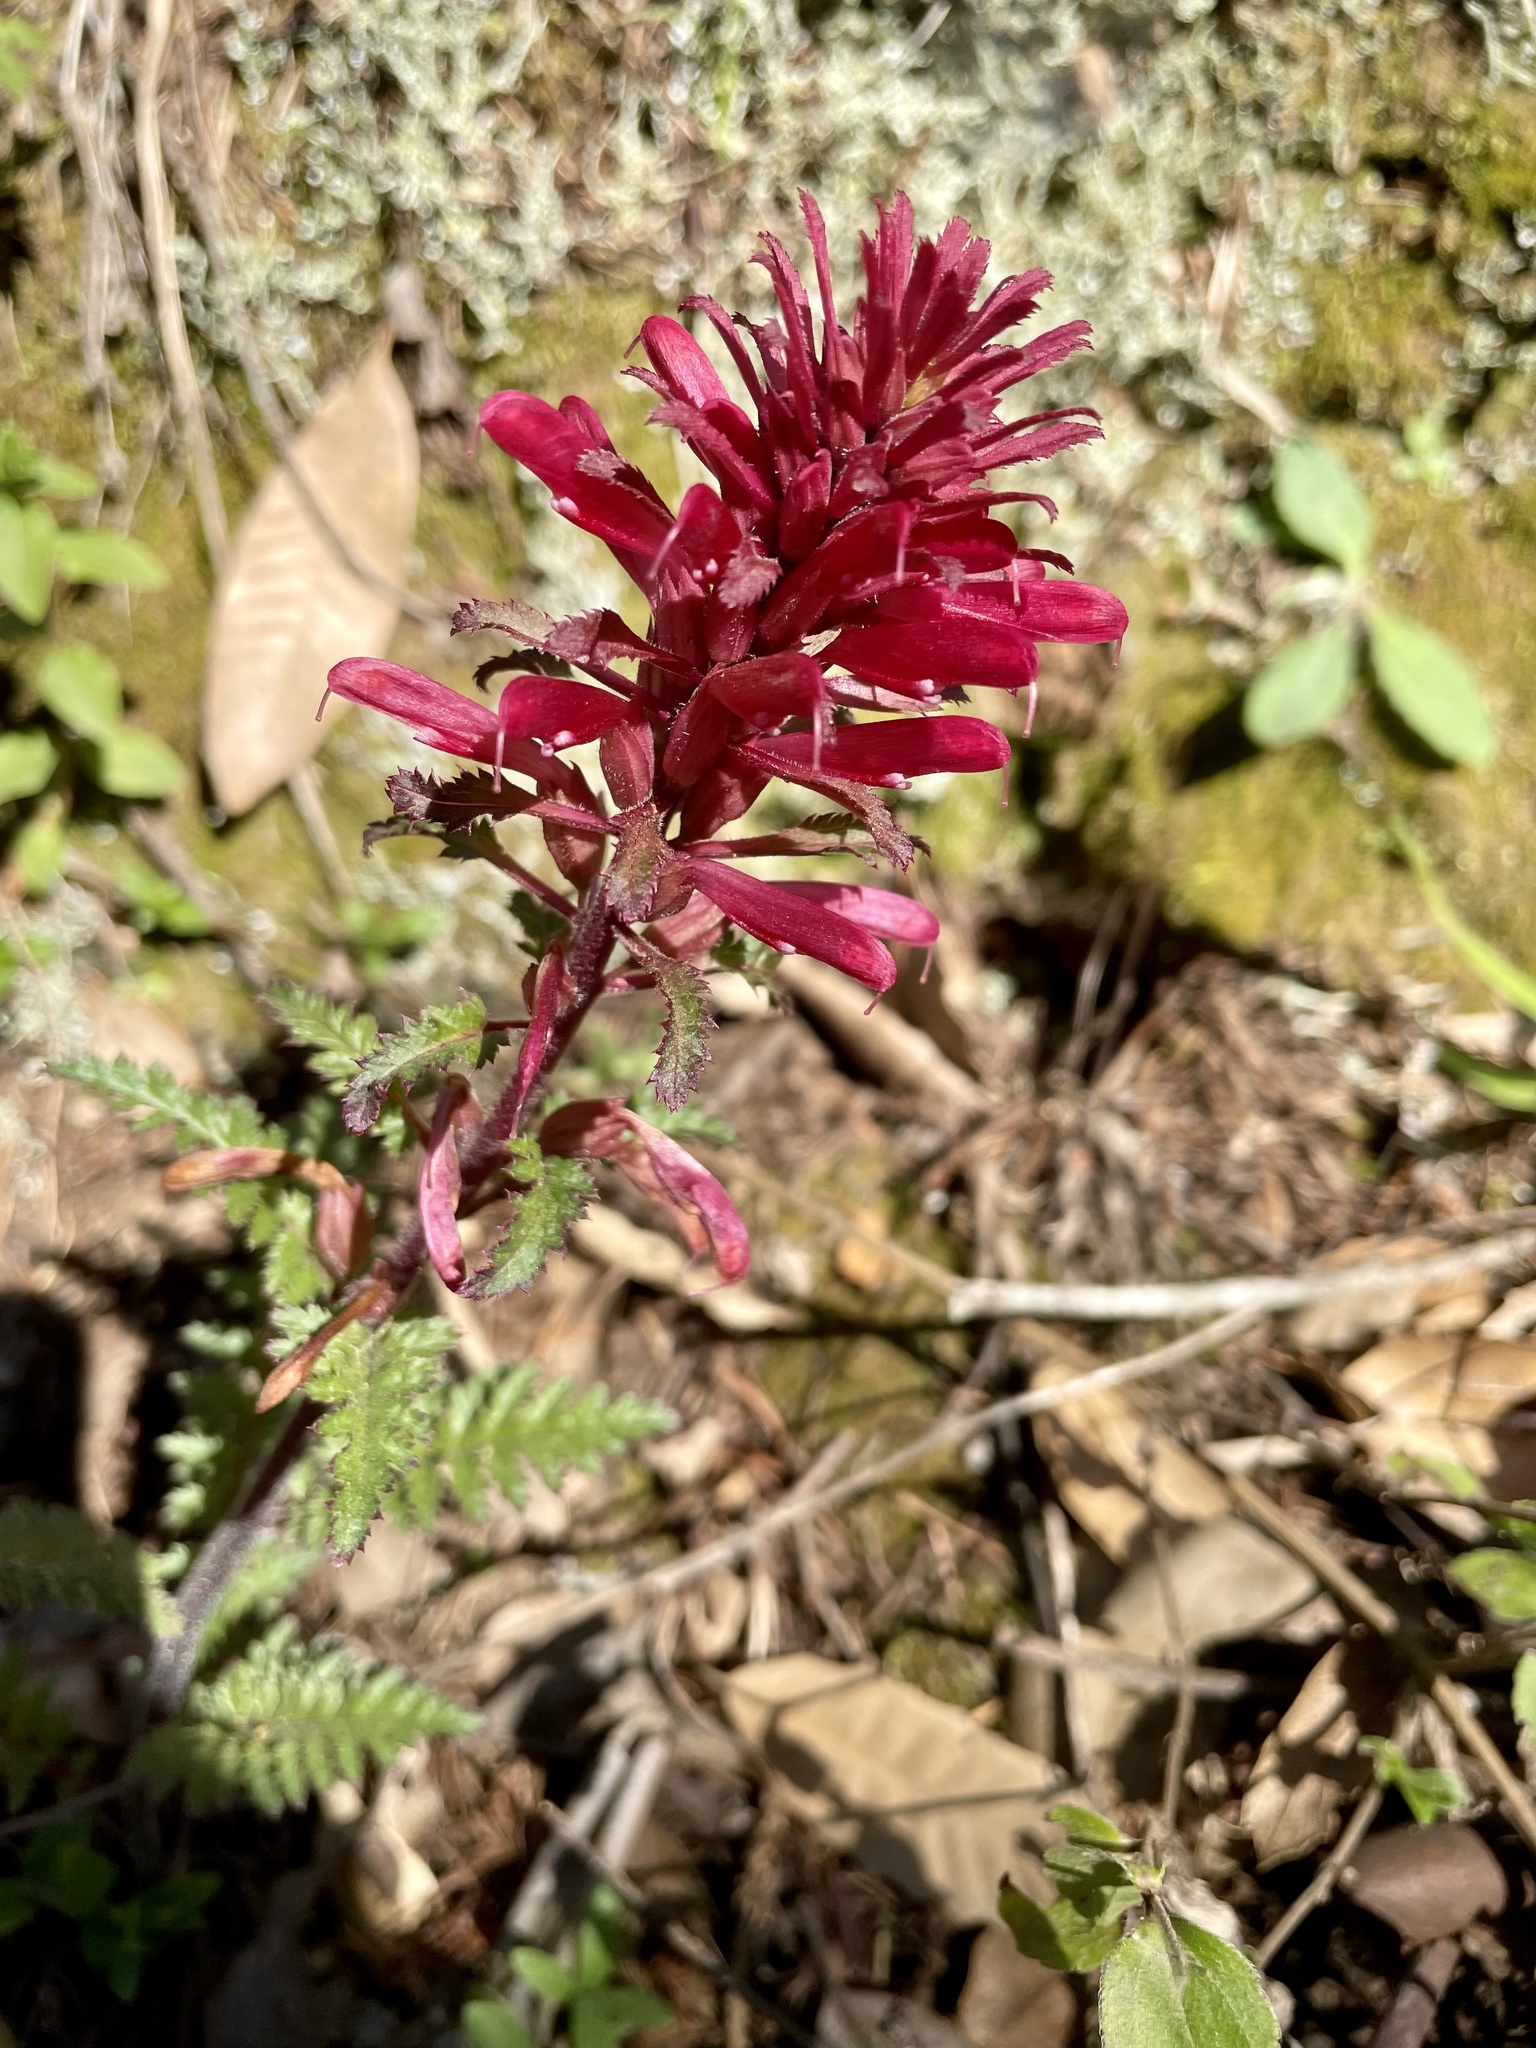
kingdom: Plantae
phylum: Tracheophyta
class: Magnoliopsida
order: Lamiales
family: Orobanchaceae
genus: Pedicularis
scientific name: Pedicularis densiflora
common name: Indian warrior
